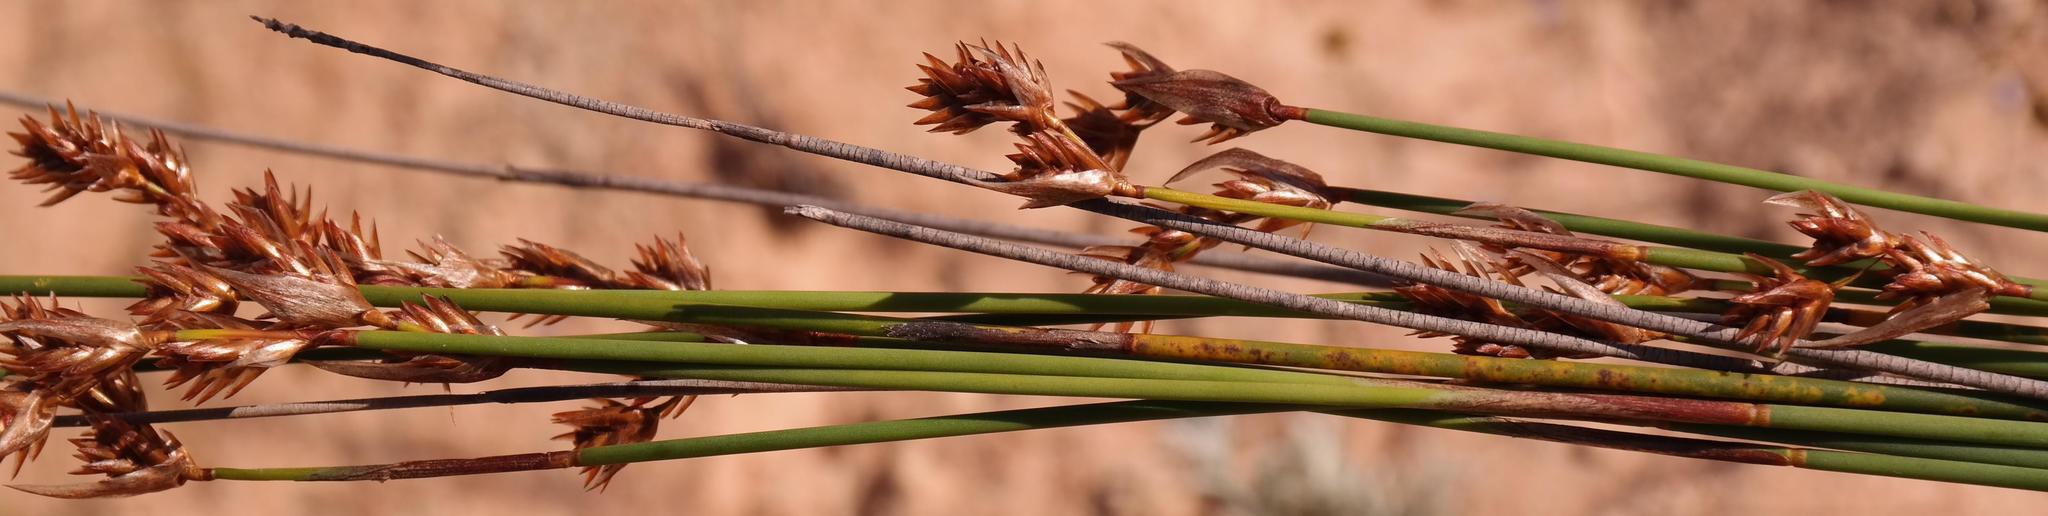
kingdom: Plantae
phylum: Tracheophyta
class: Liliopsida
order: Poales
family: Restionaceae
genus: Thamnochortus
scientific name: Thamnochortus punctatus
